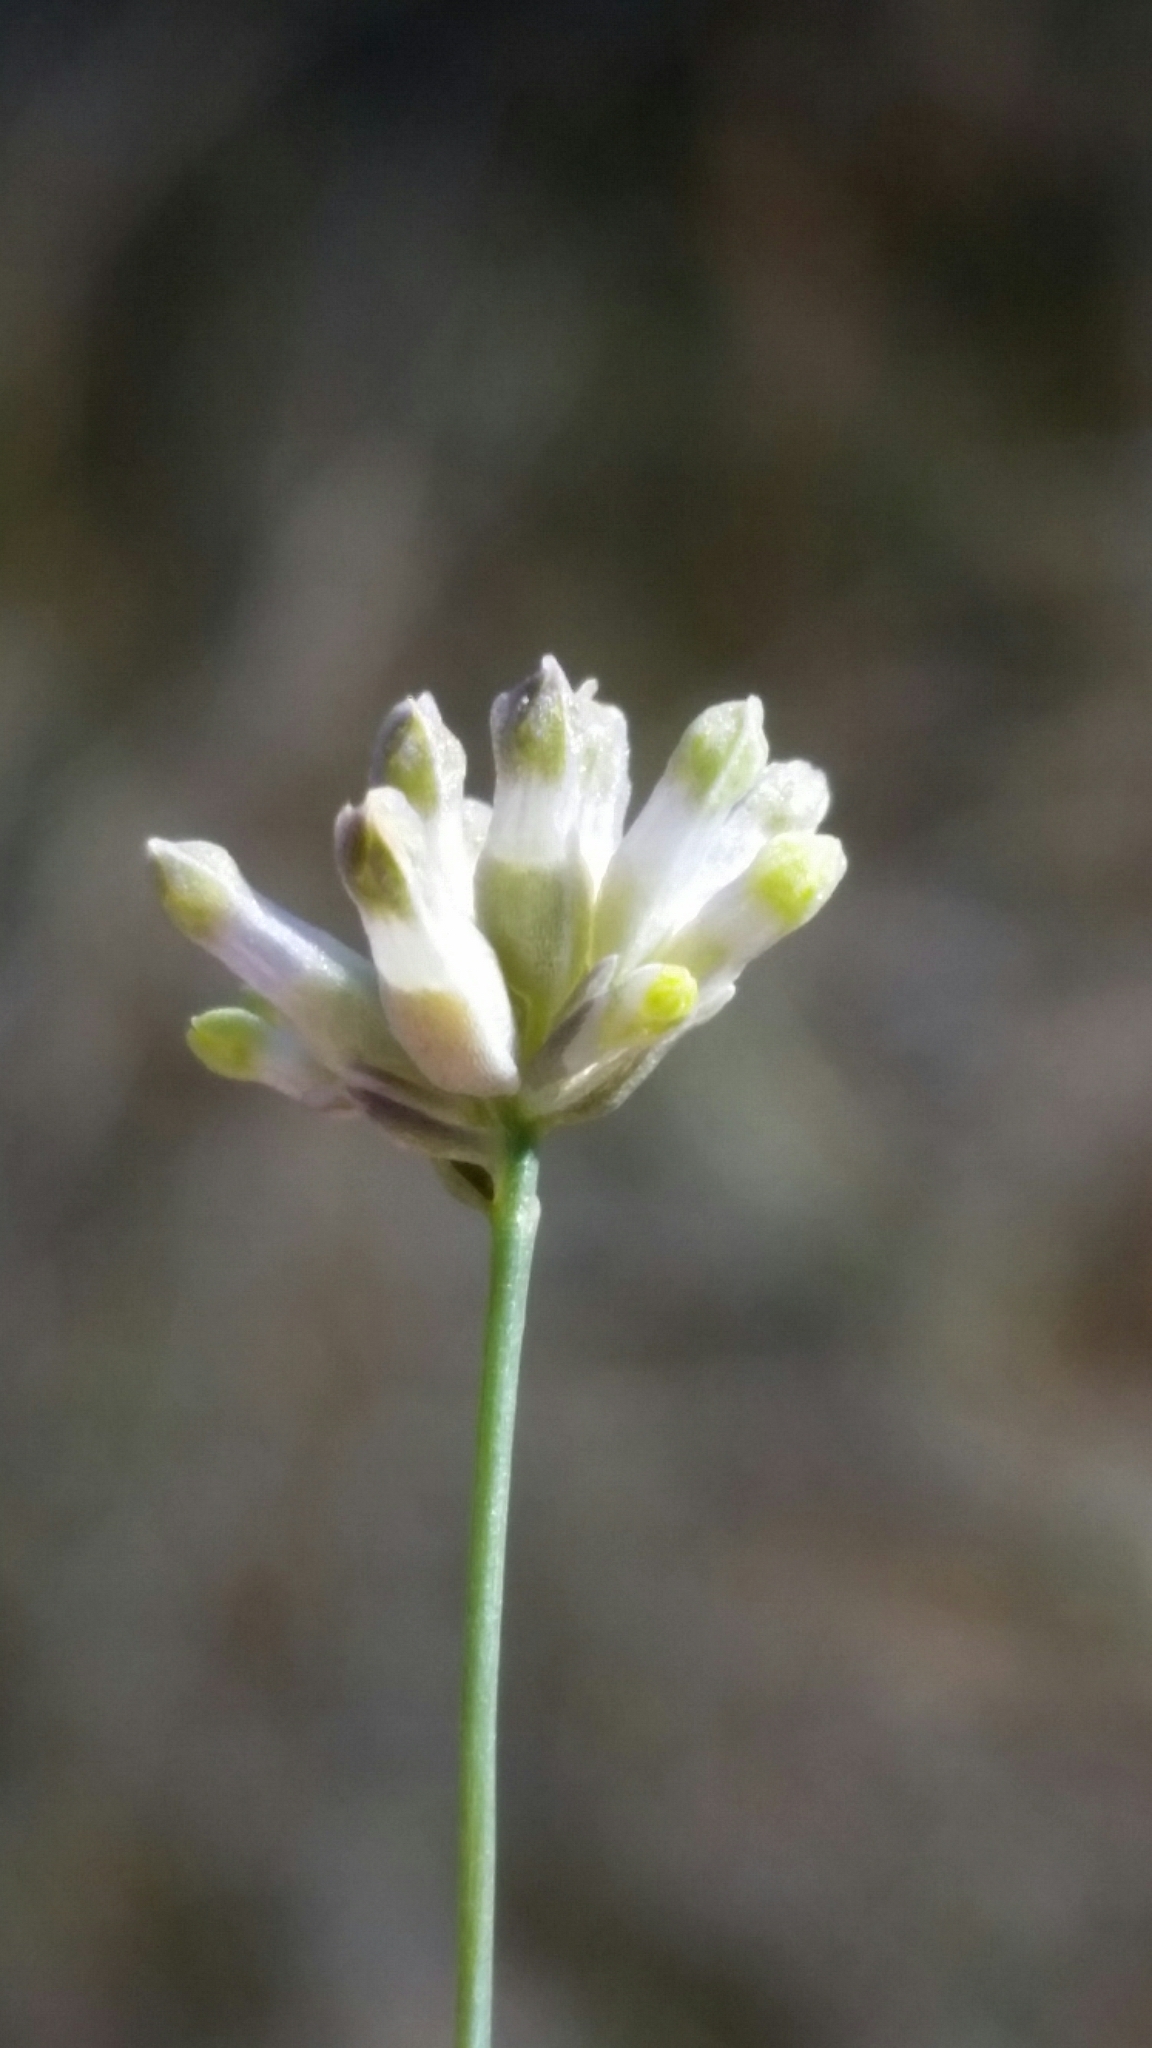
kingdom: Plantae
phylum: Tracheophyta
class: Liliopsida
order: Dioscoreales
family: Burmanniaceae
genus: Burmannia
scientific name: Burmannia capitata
